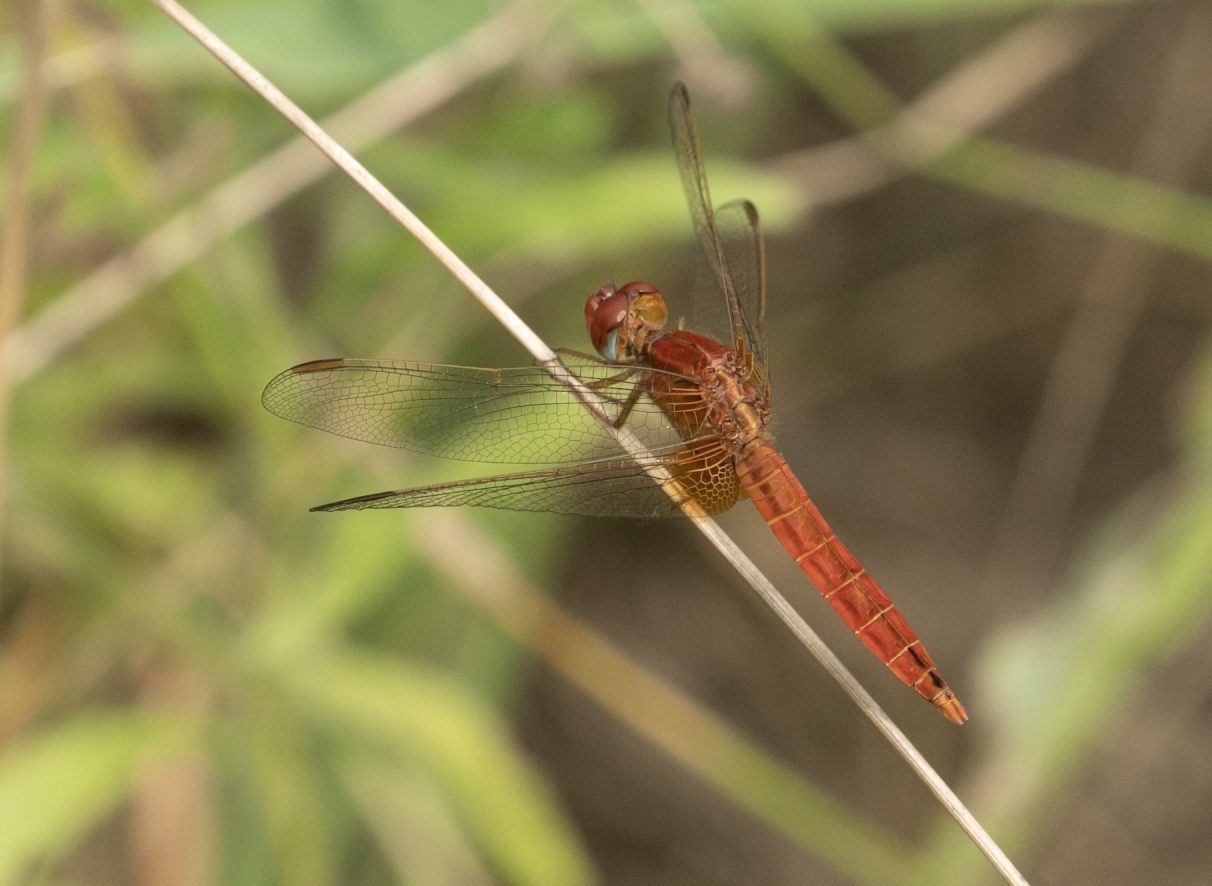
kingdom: Animalia
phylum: Arthropoda
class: Insecta
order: Odonata
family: Libellulidae
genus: Crocothemis
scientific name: Crocothemis erythraea
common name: Scarlet dragonfly
